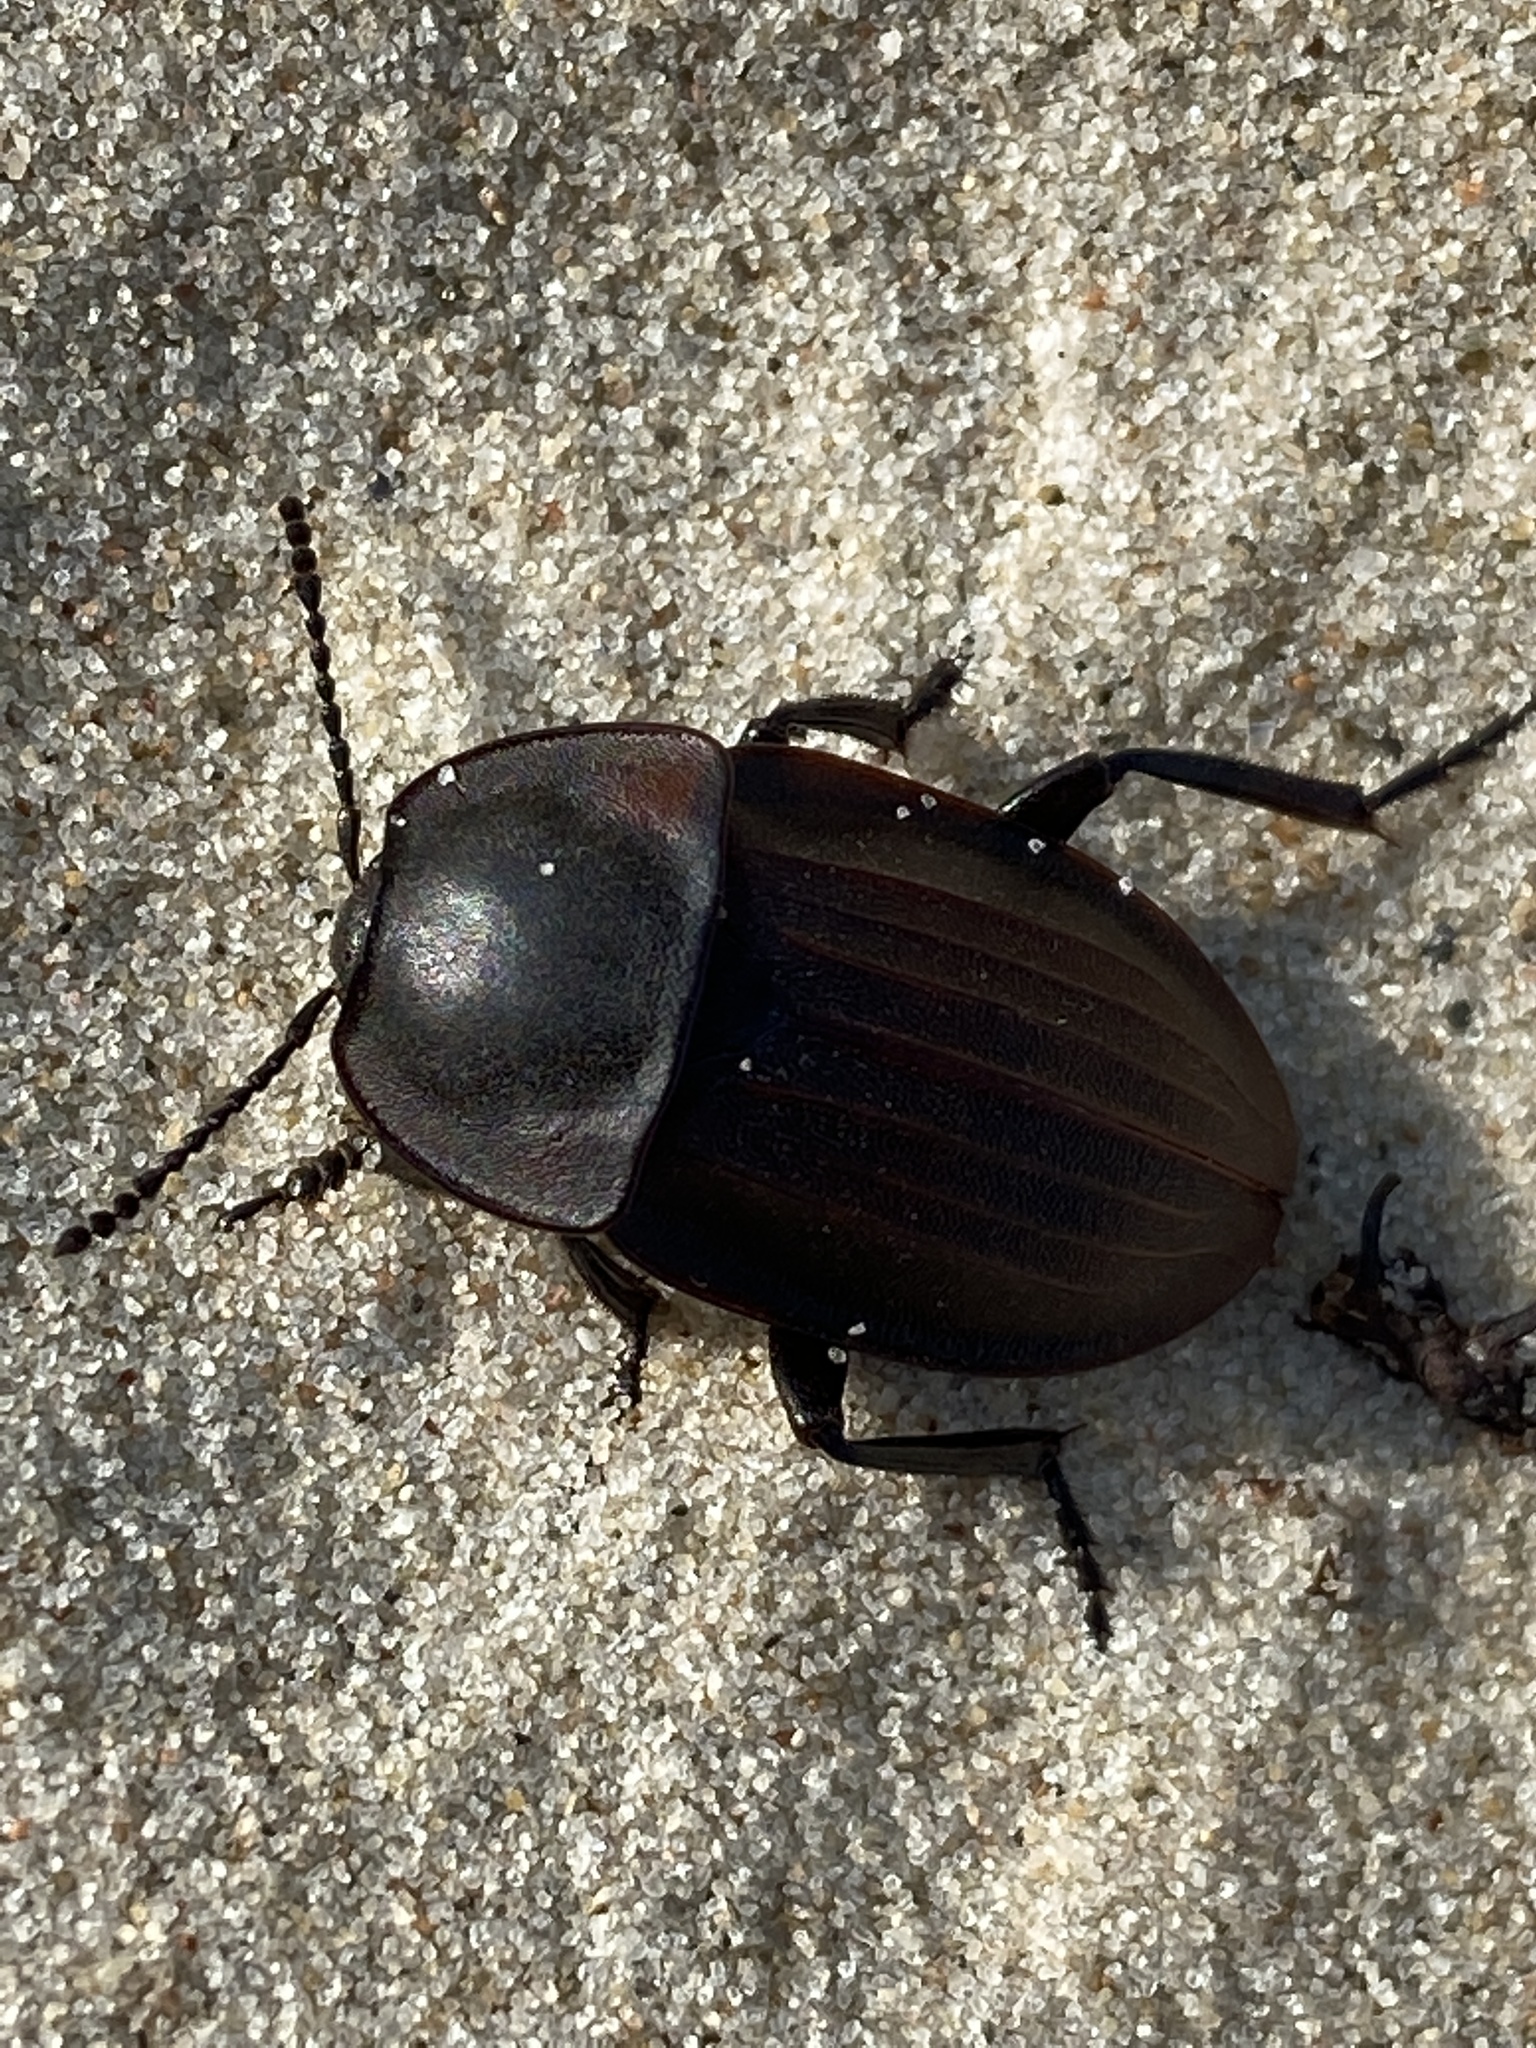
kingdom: Animalia
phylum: Arthropoda
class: Insecta
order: Coleoptera
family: Staphylinidae
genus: Silpha
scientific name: Silpha carinata
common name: Silphid beetle
